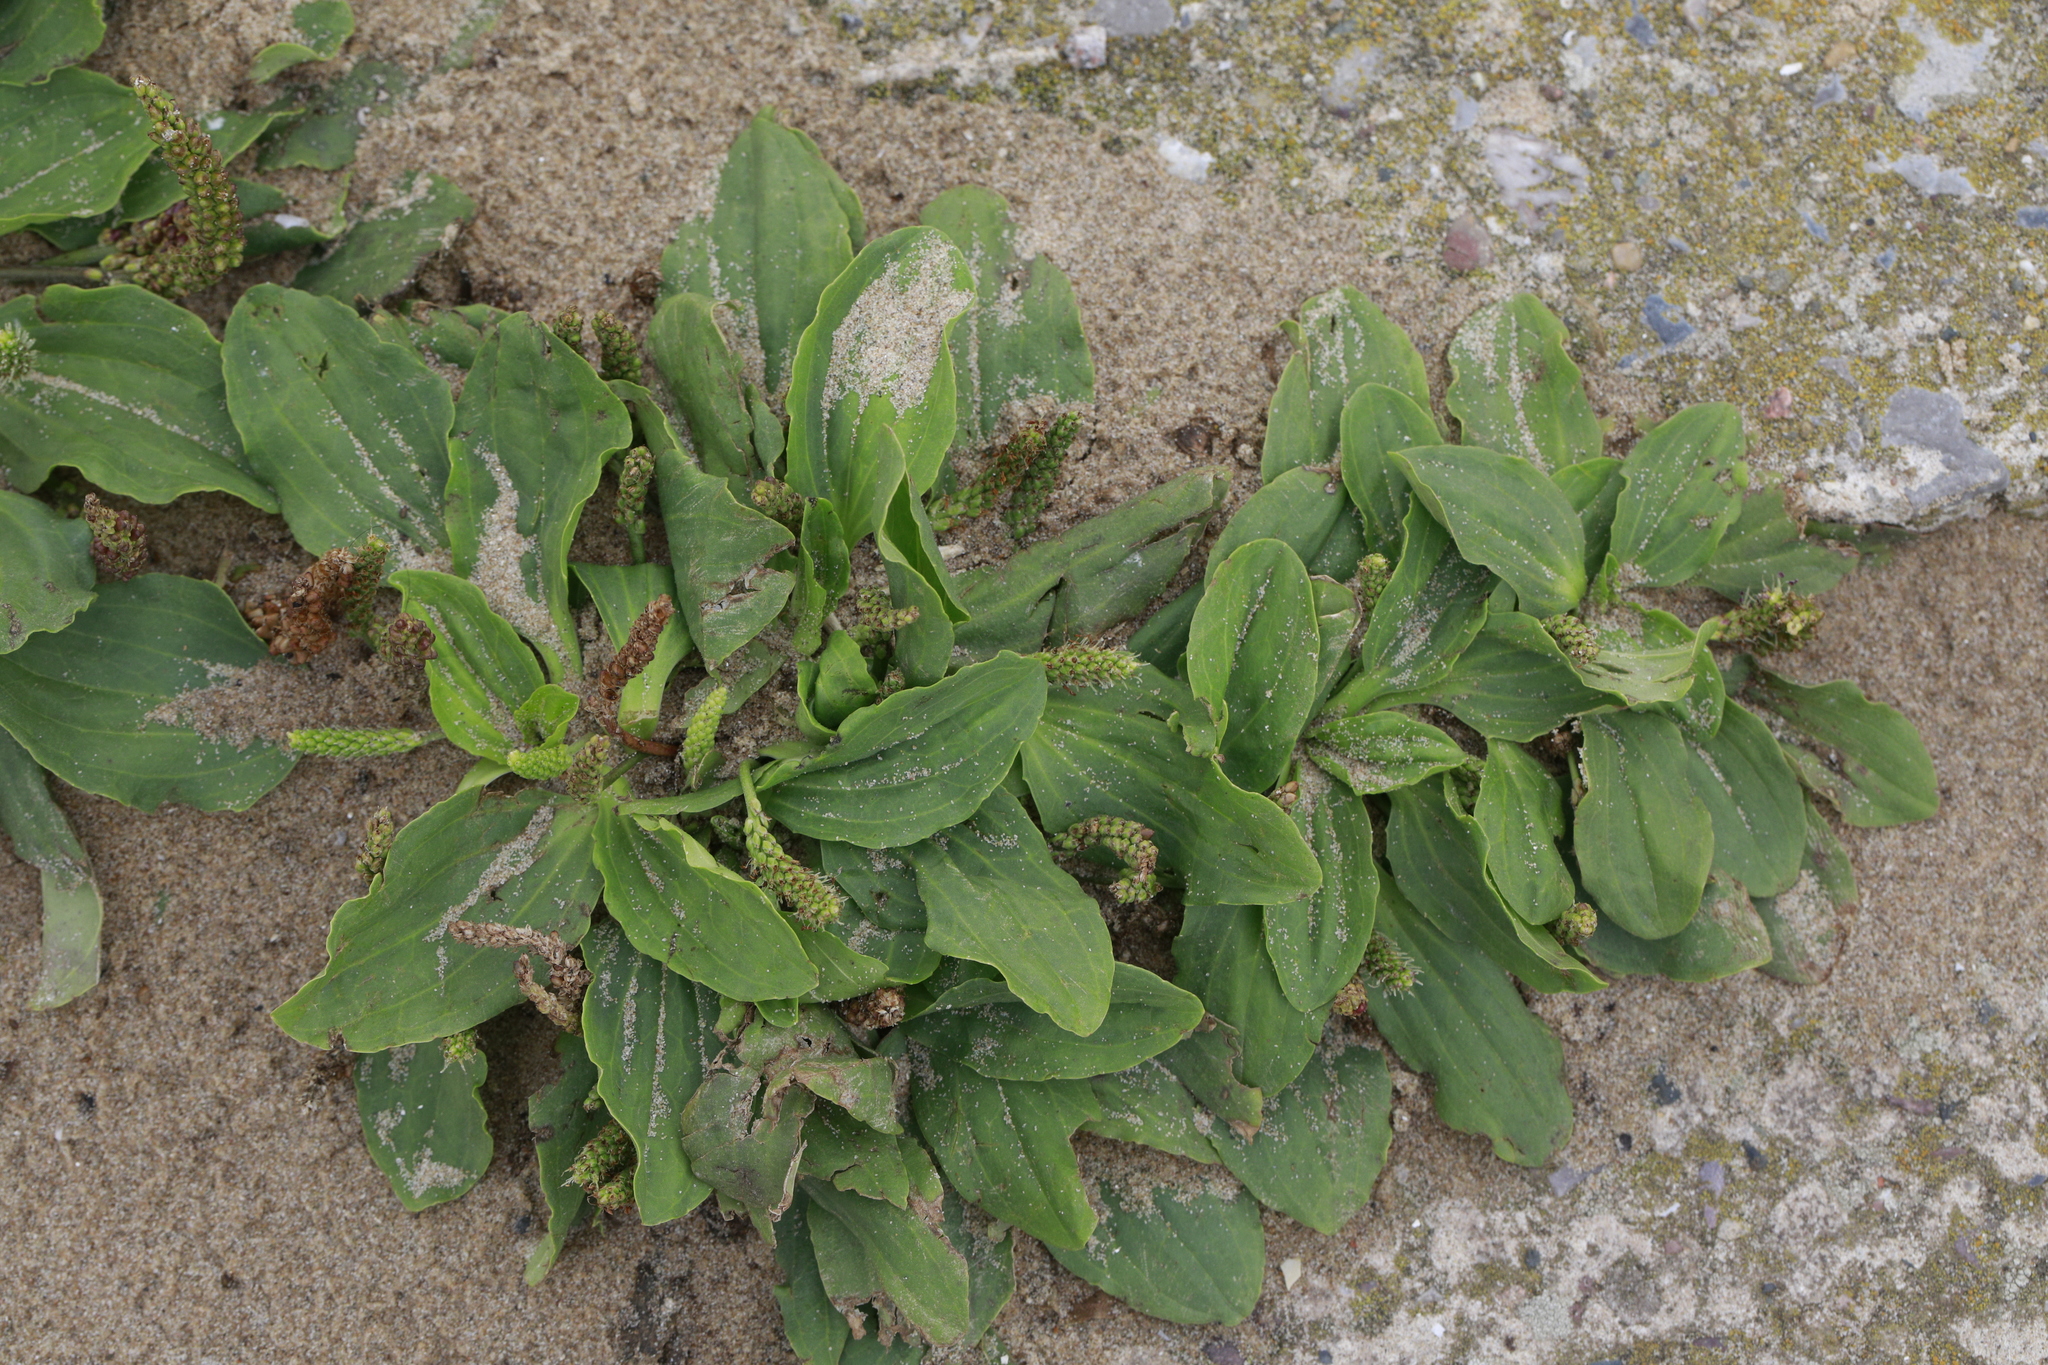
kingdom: Plantae
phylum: Tracheophyta
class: Magnoliopsida
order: Lamiales
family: Plantaginaceae
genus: Plantago
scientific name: Plantago major
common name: Common plantain
